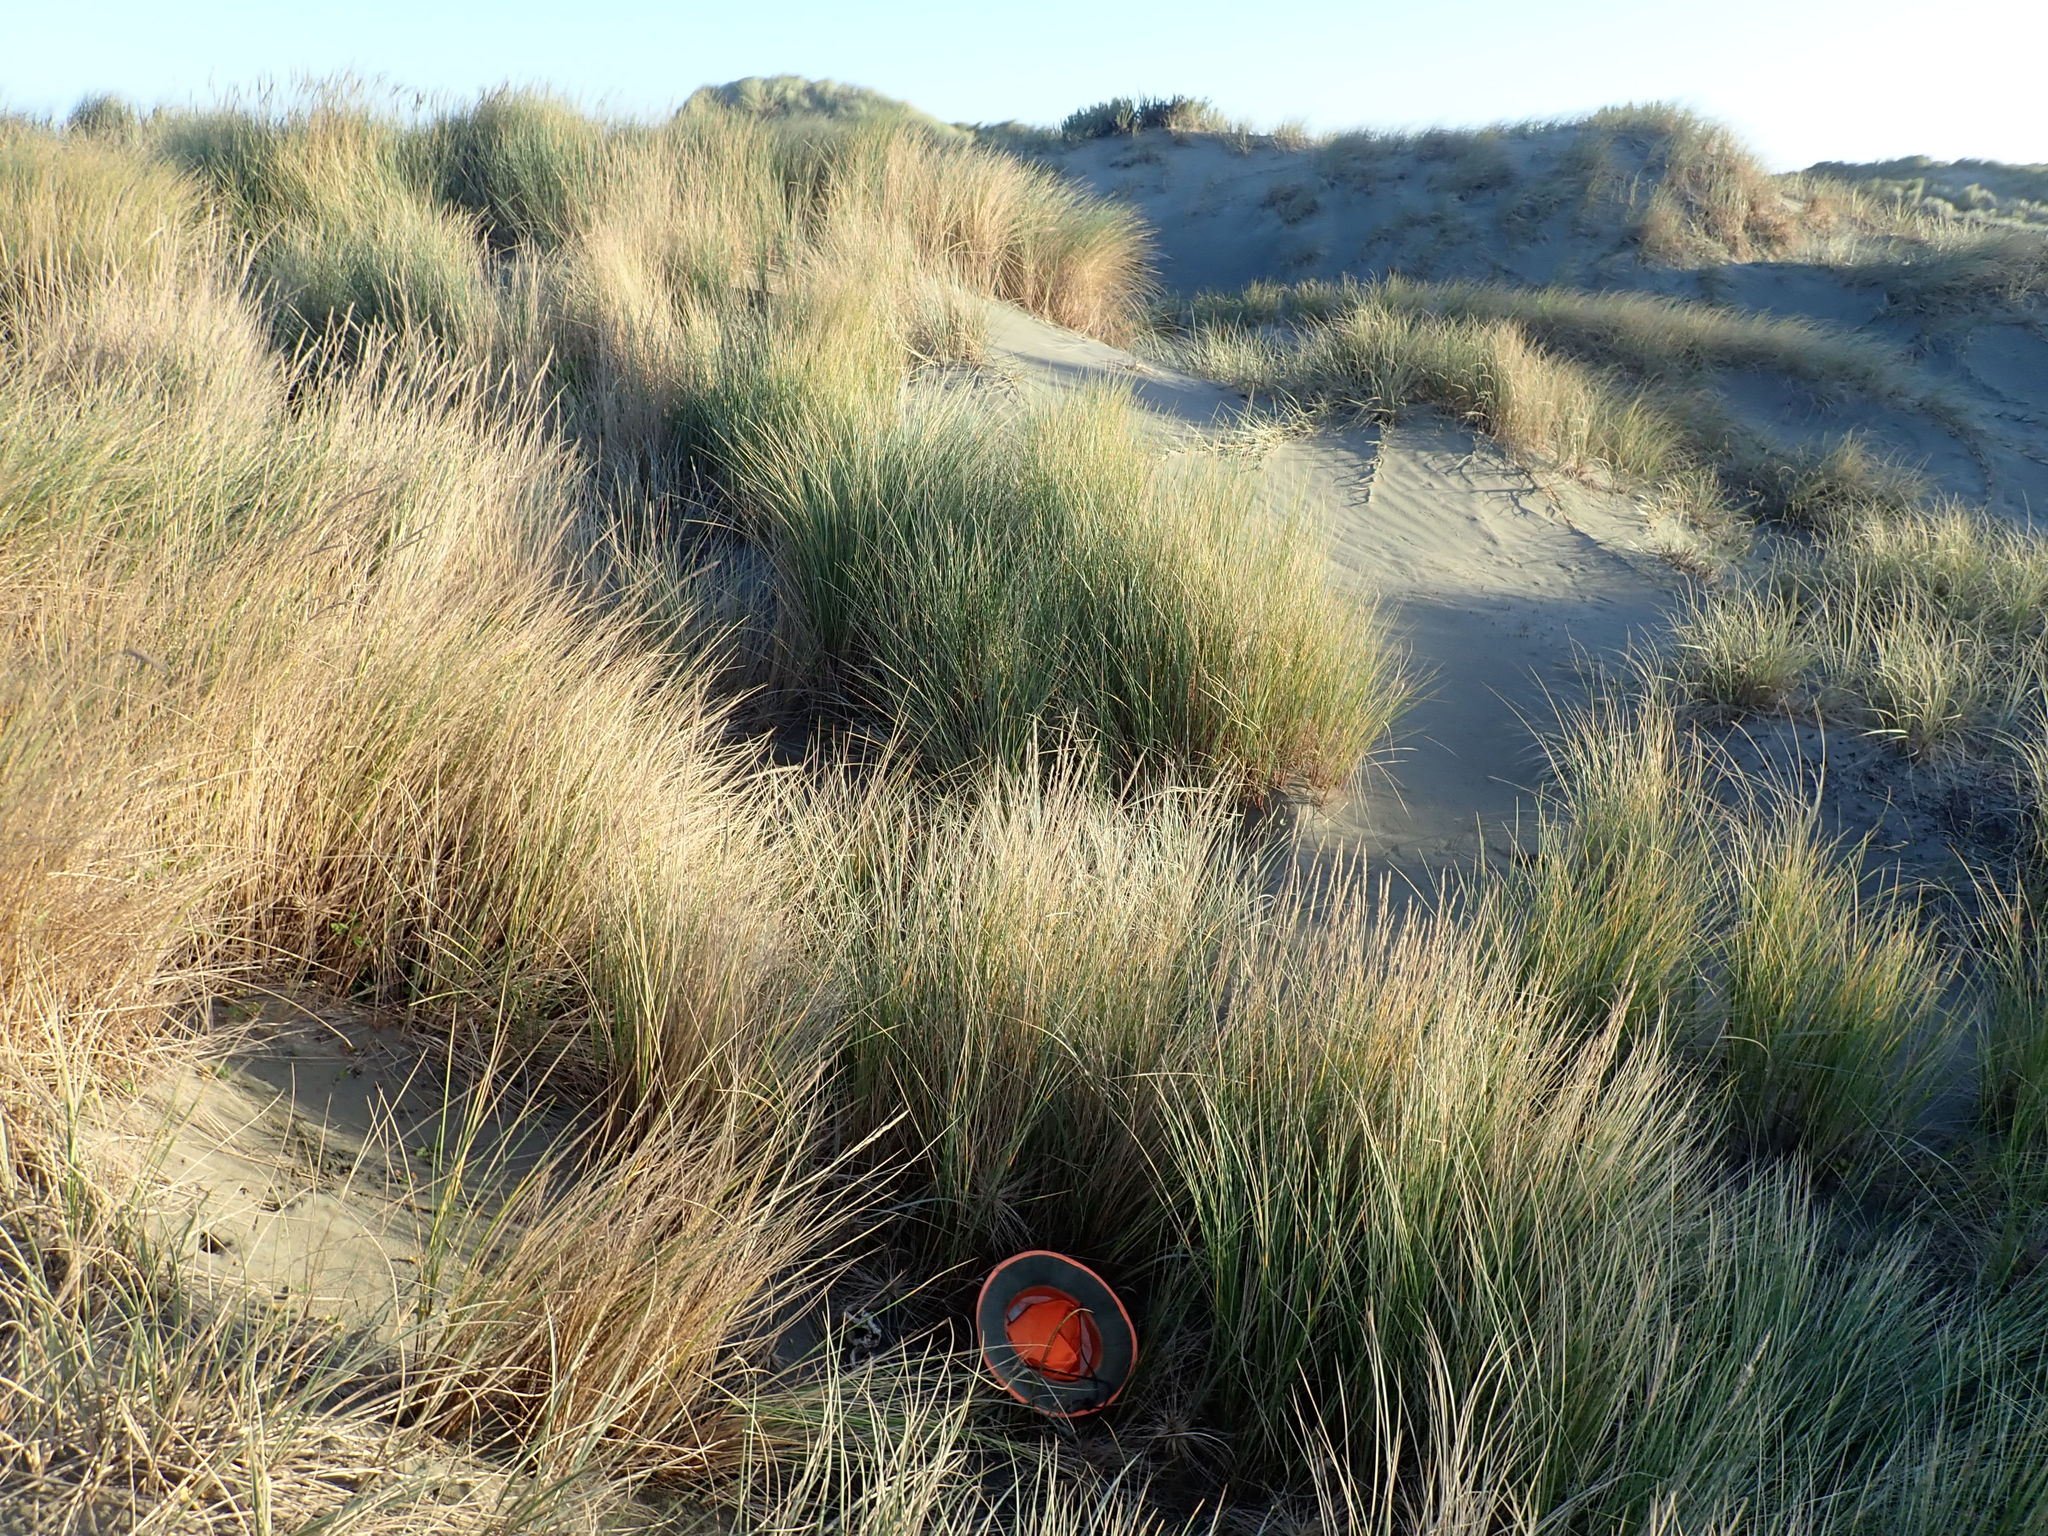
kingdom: Fungi
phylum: Basidiomycota
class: Agaricomycetes
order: Phallales
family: Phallaceae
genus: Ileodictyon
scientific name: Ileodictyon cibarium
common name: Basket fungus
